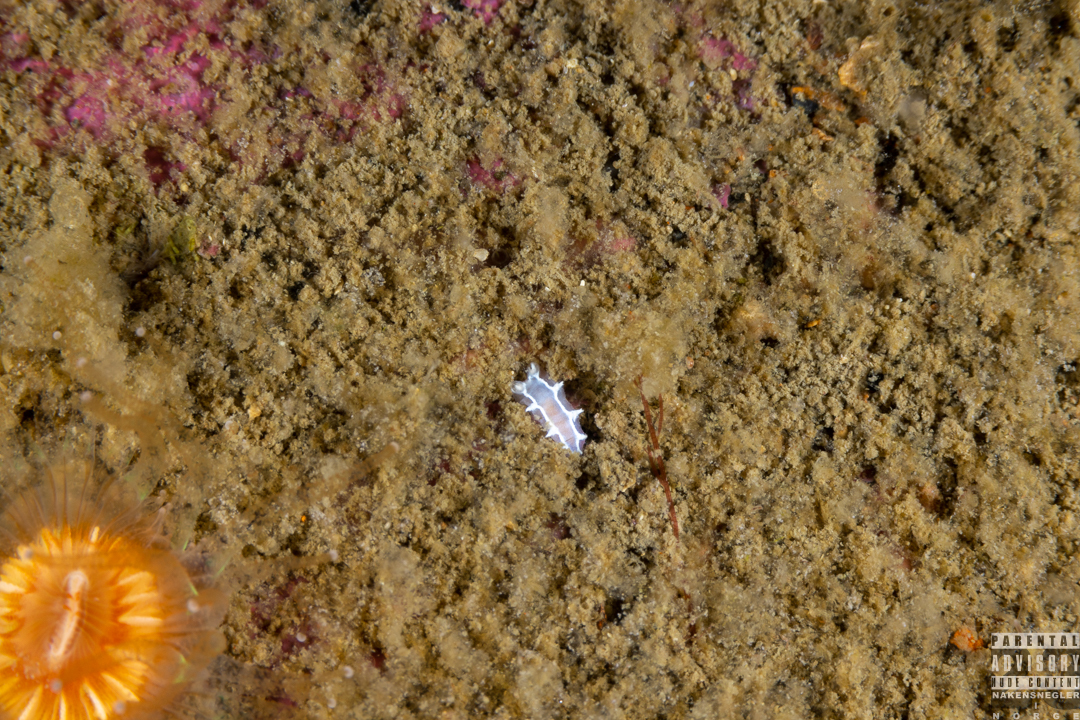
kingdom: Animalia
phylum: Mollusca
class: Gastropoda
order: Nudibranchia
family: Tritoniidae
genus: Duvaucelia
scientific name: Duvaucelia lineata
